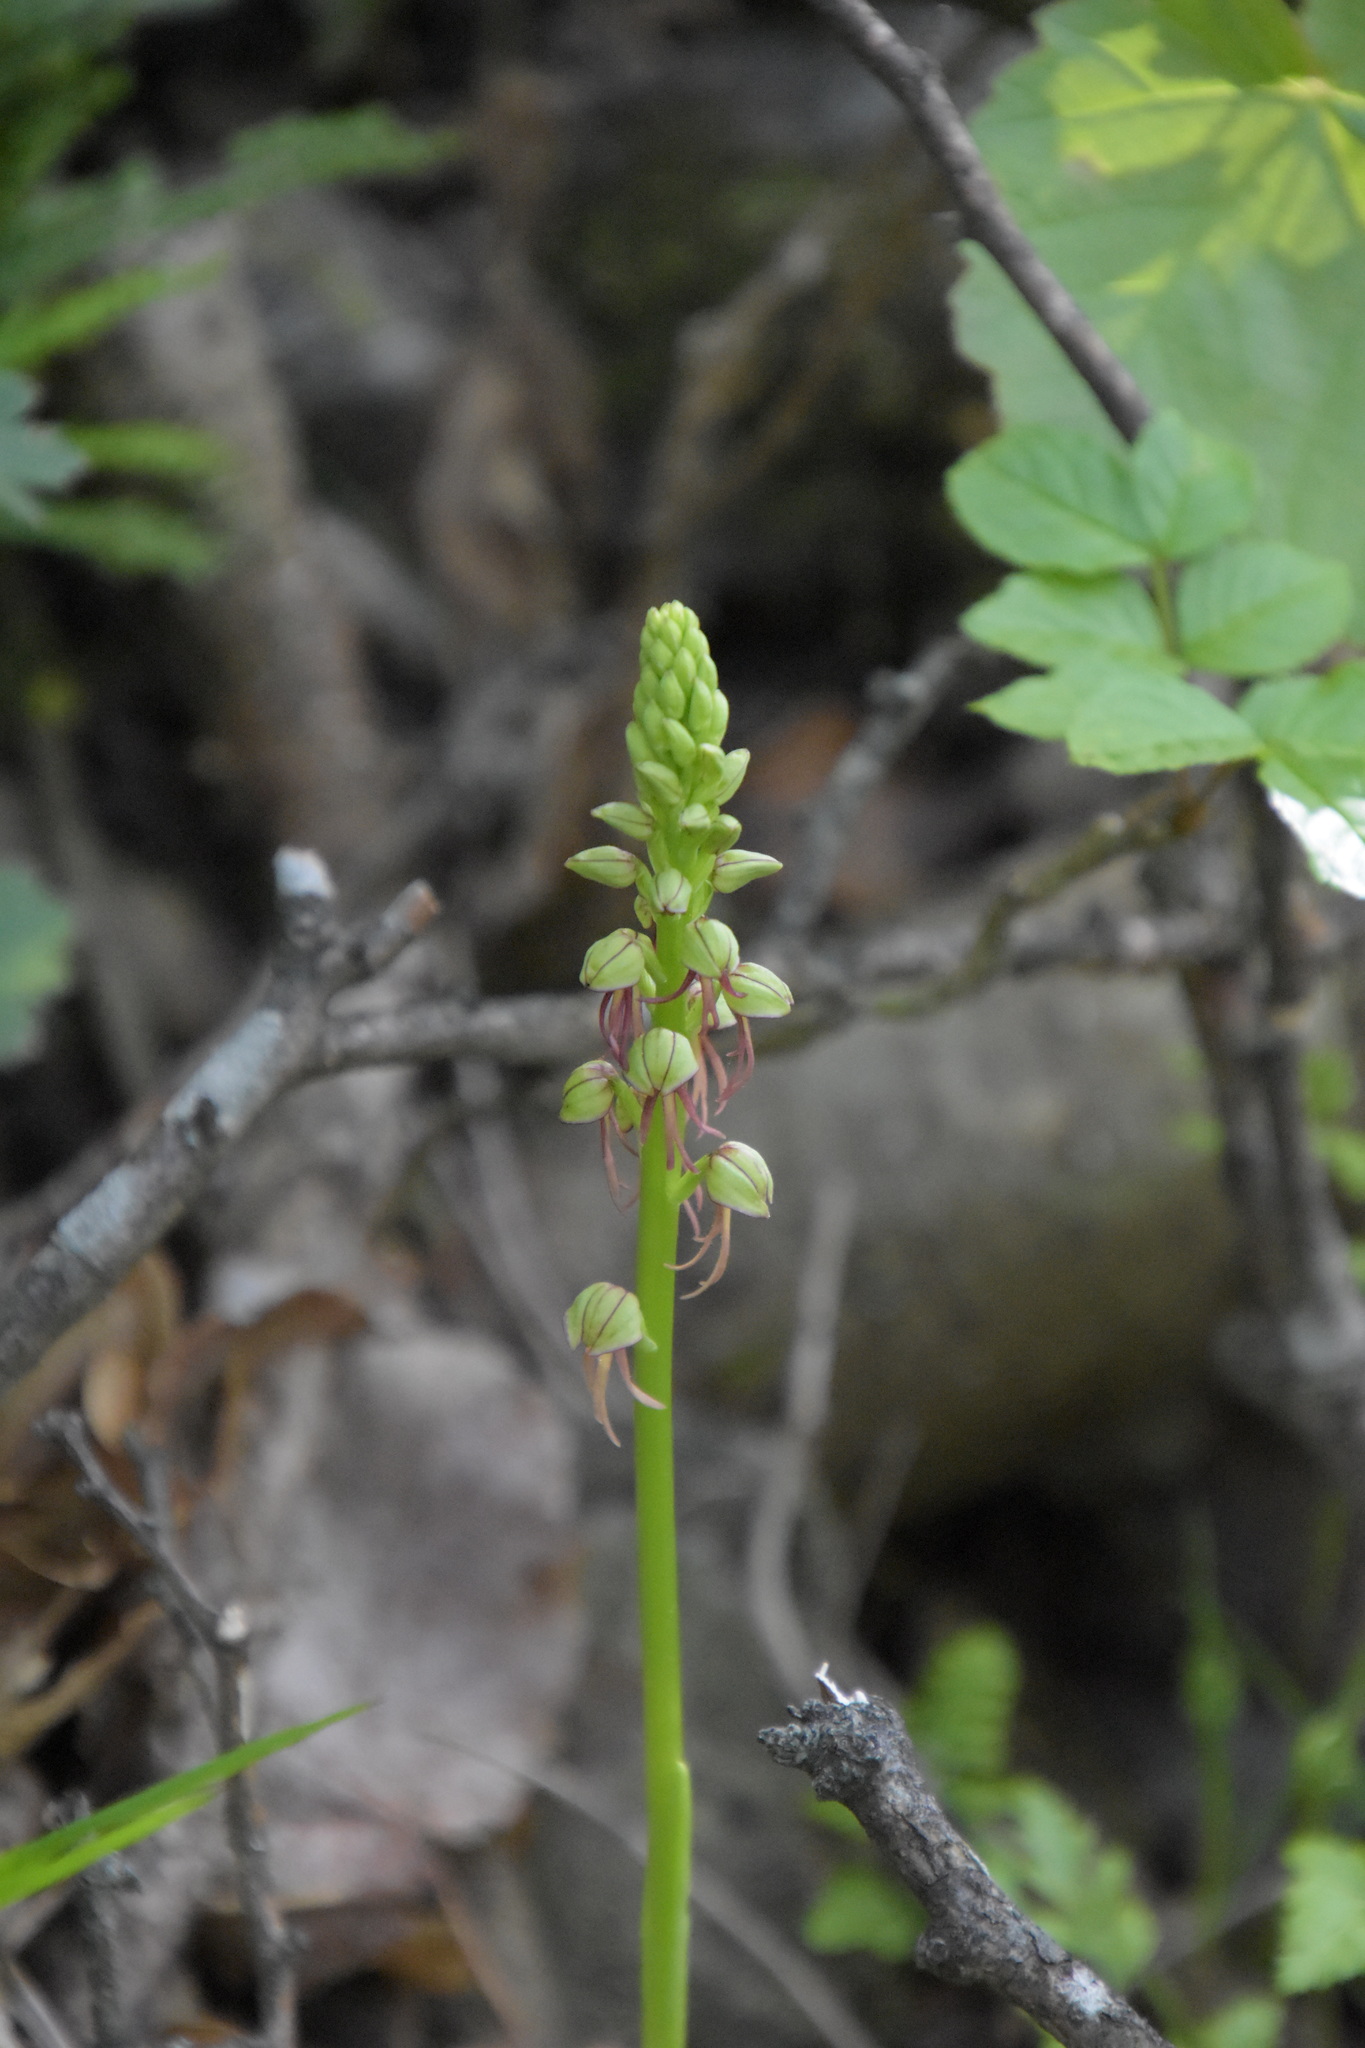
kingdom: Plantae
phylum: Tracheophyta
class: Liliopsida
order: Asparagales
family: Orchidaceae
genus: Orchis
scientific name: Orchis anthropophora
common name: Man orchid
